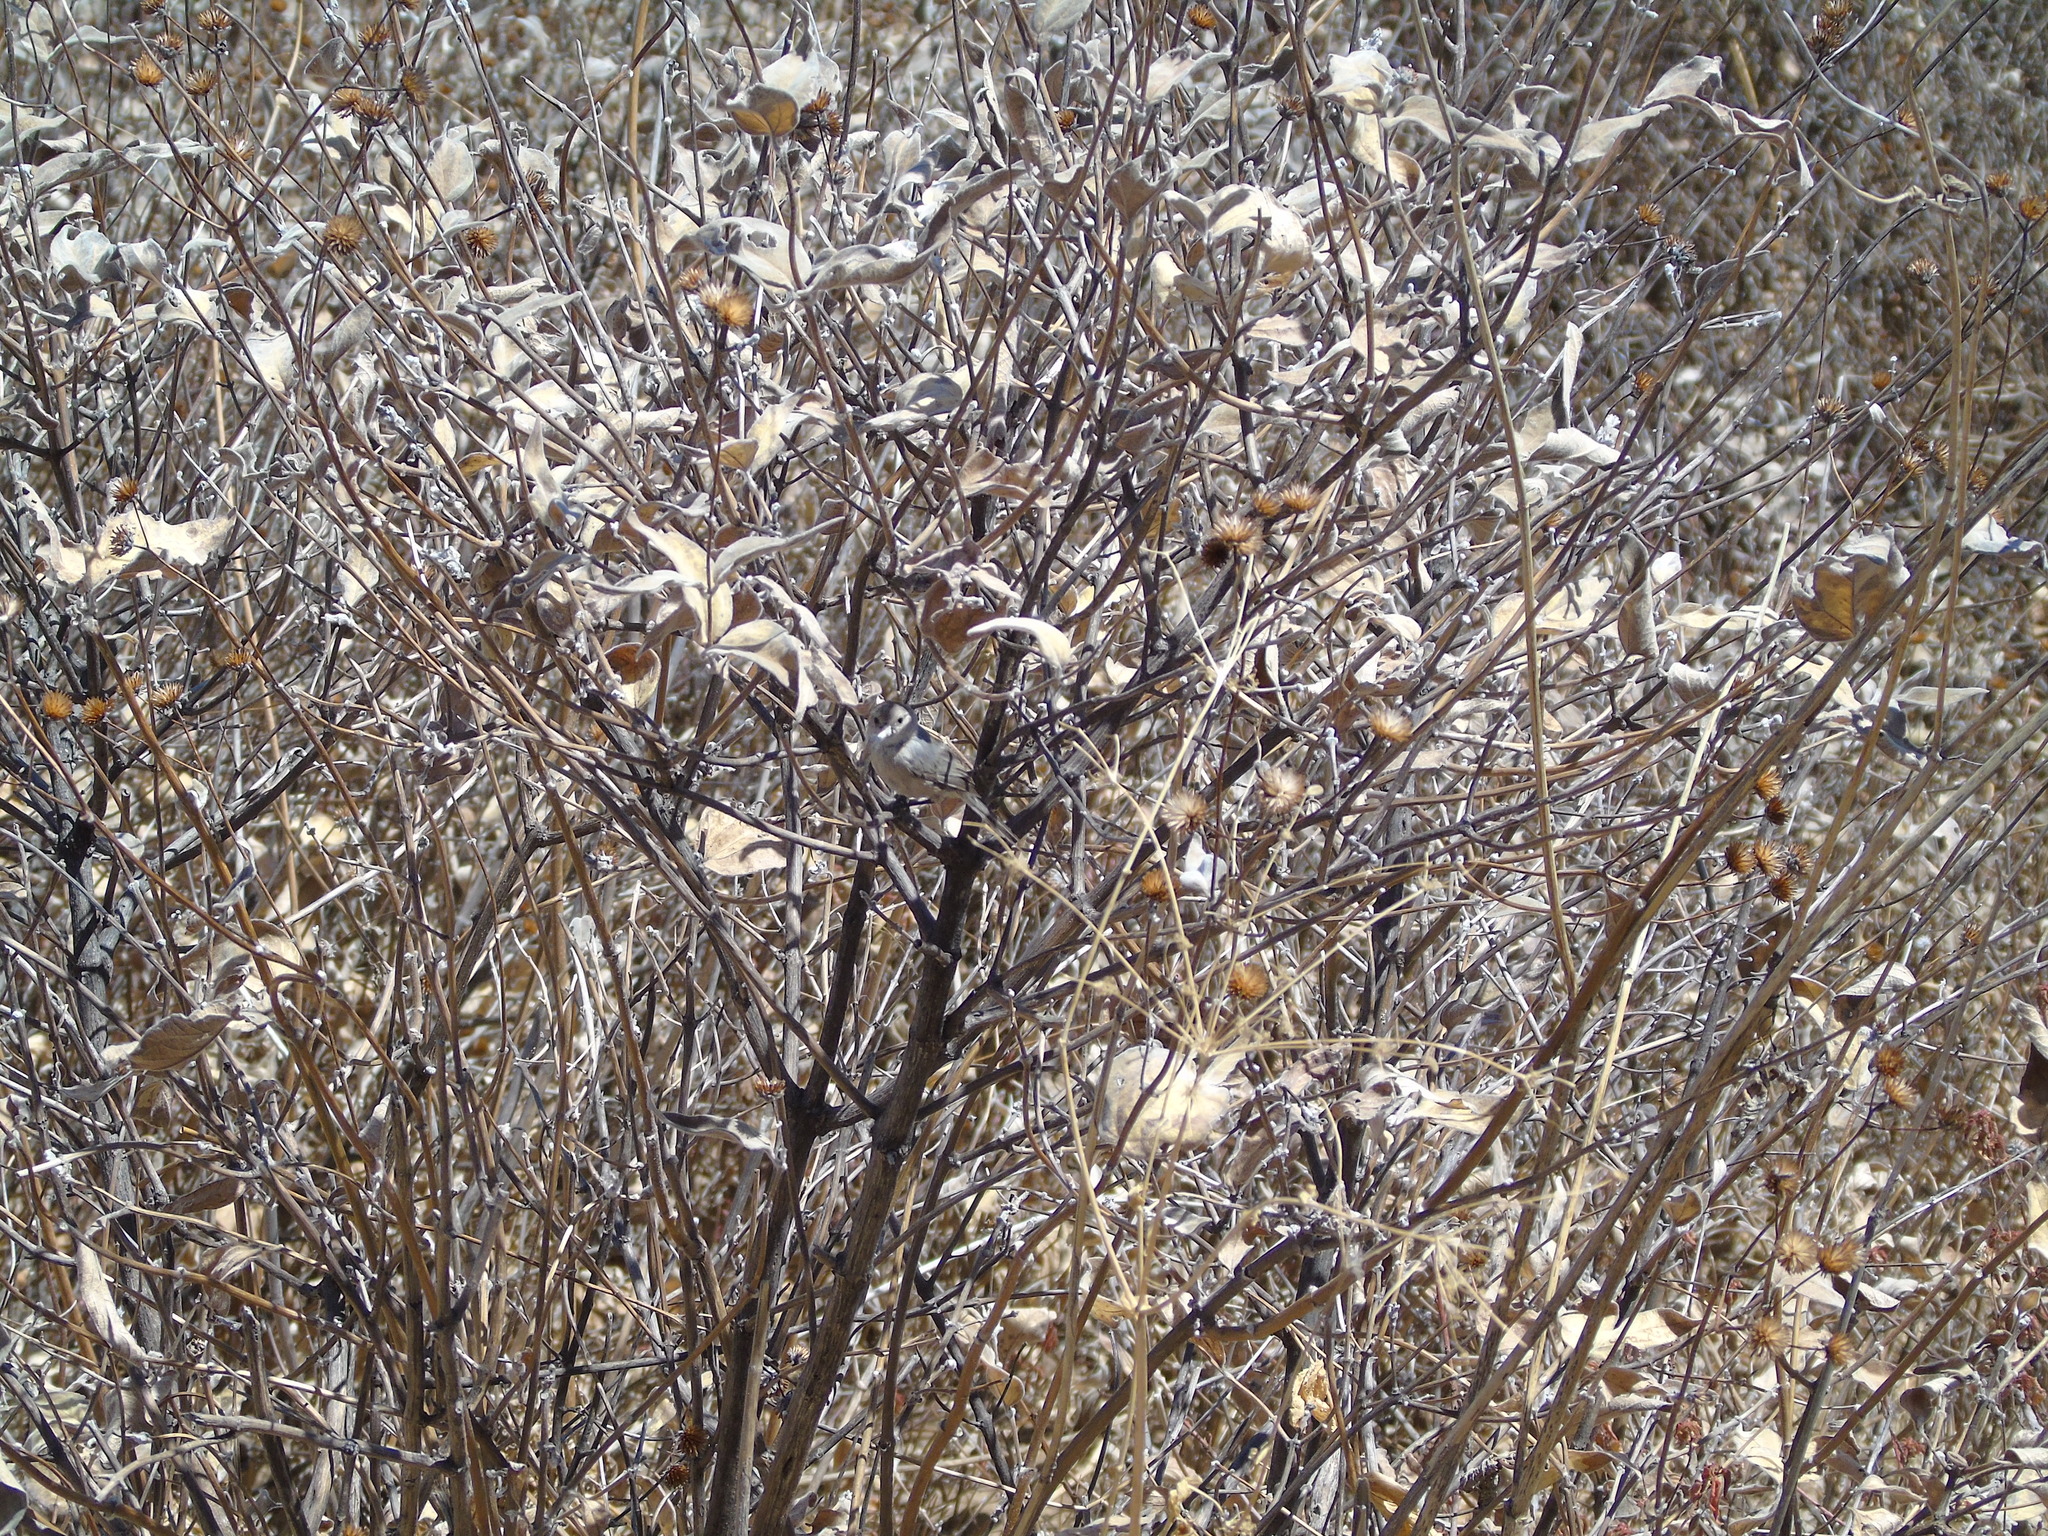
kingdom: Animalia
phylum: Chordata
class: Aves
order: Passeriformes
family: Aegithalidae
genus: Psaltriparus
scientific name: Psaltriparus minimus
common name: American bushtit
